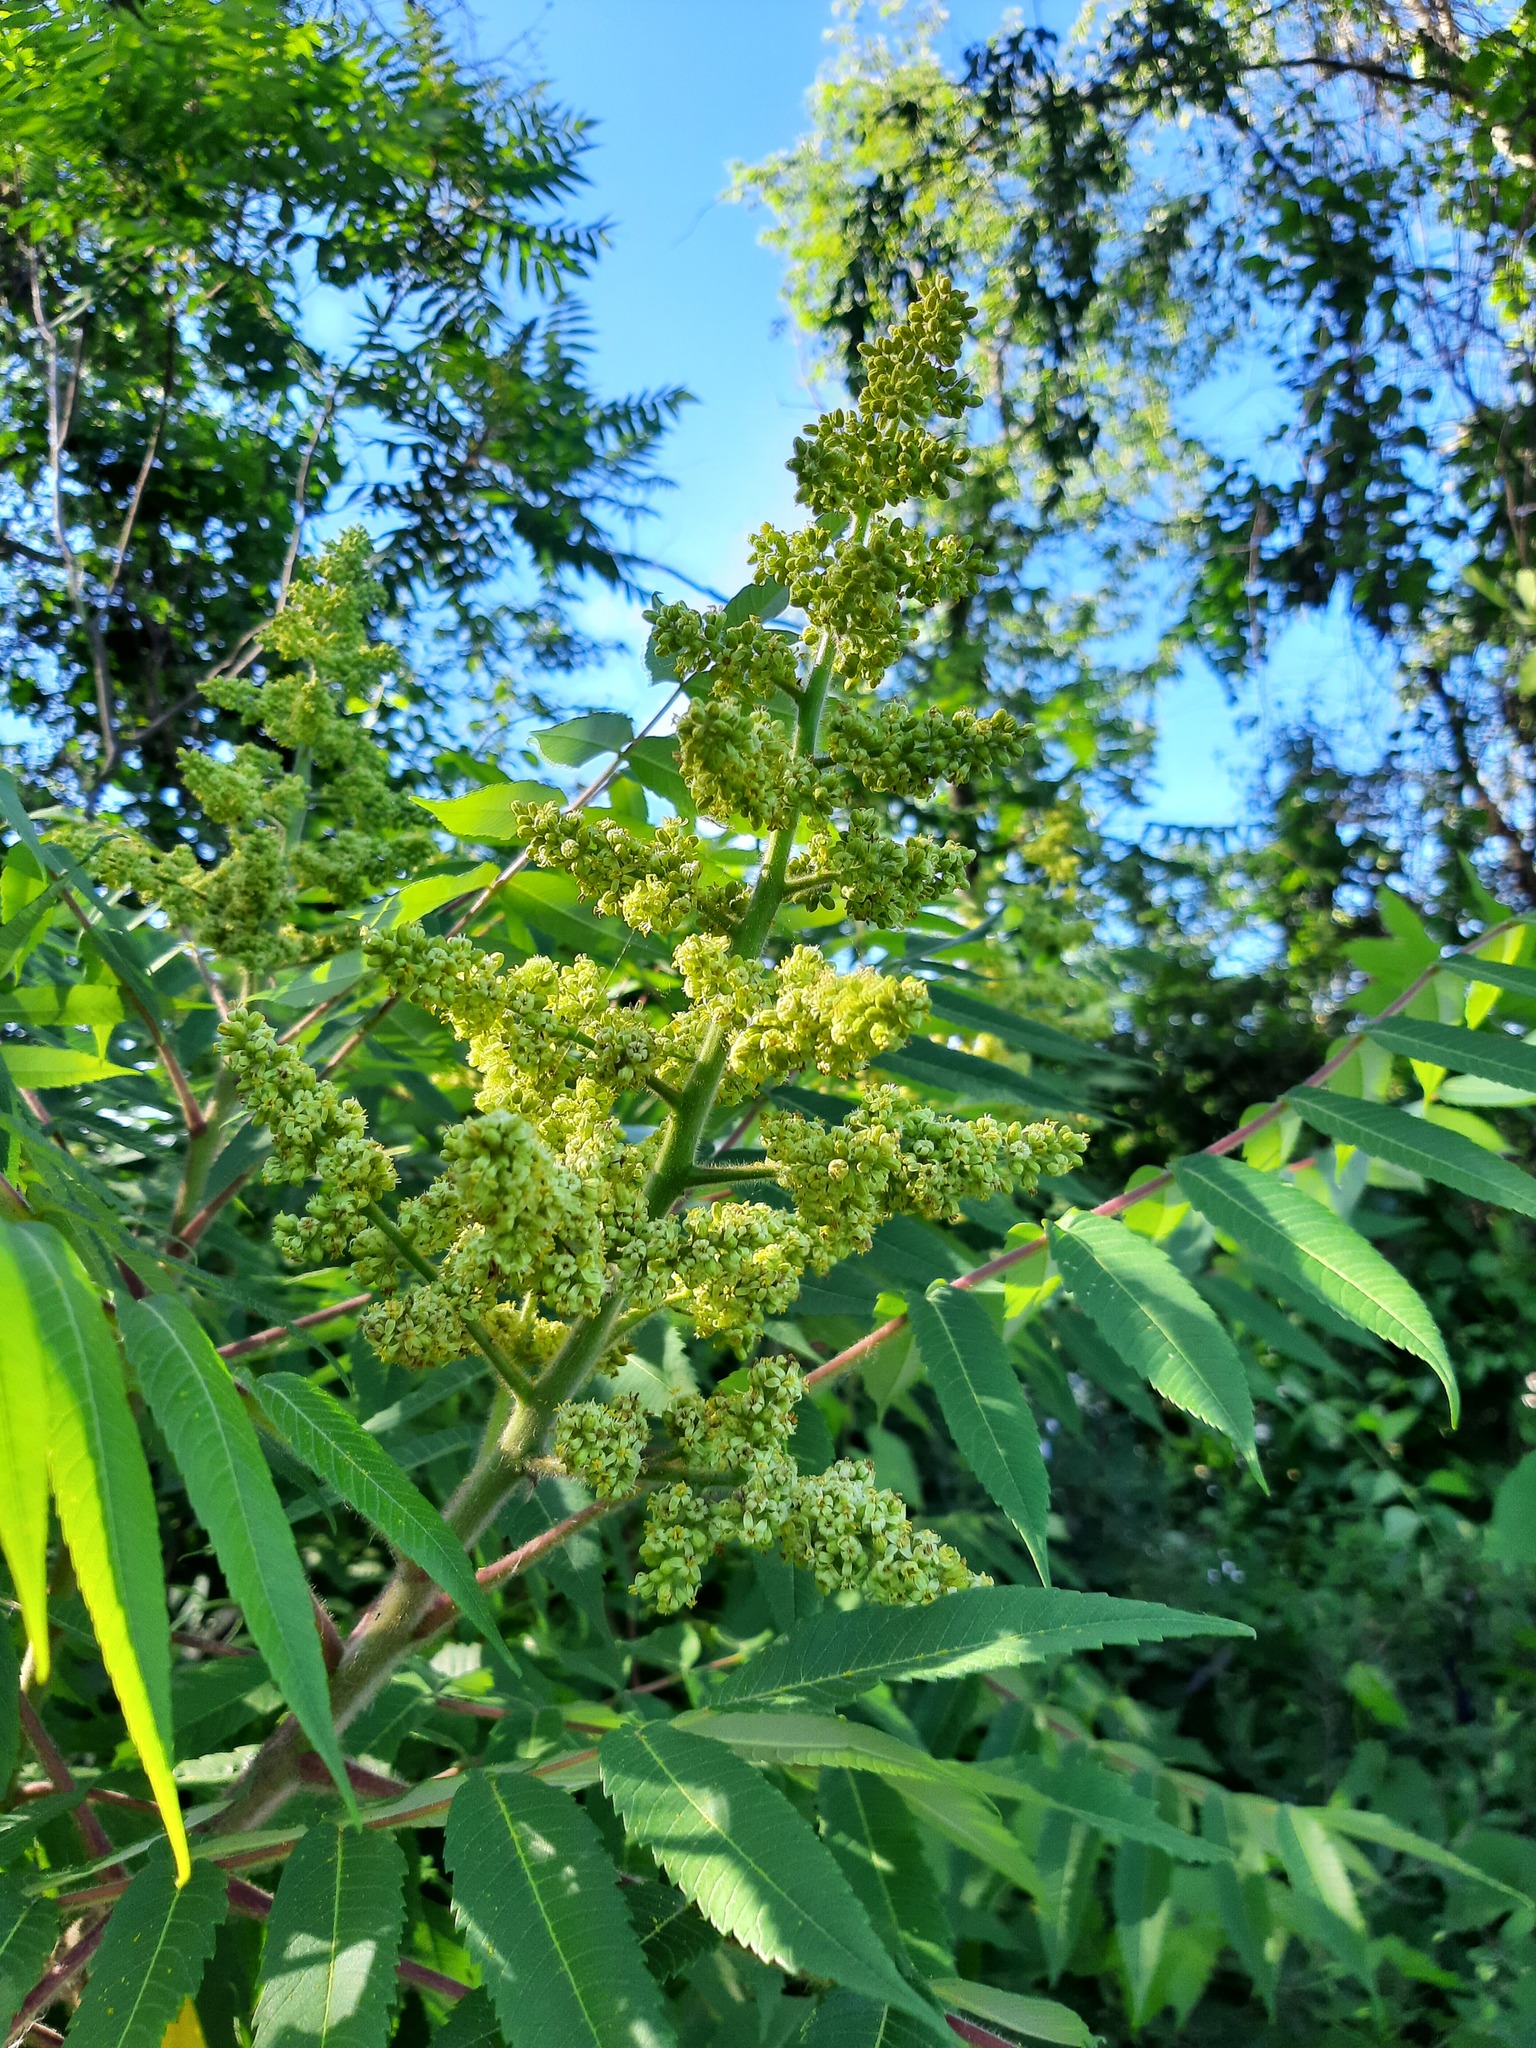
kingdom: Plantae
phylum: Tracheophyta
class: Magnoliopsida
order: Sapindales
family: Anacardiaceae
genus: Rhus
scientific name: Rhus typhina
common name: Staghorn sumac
